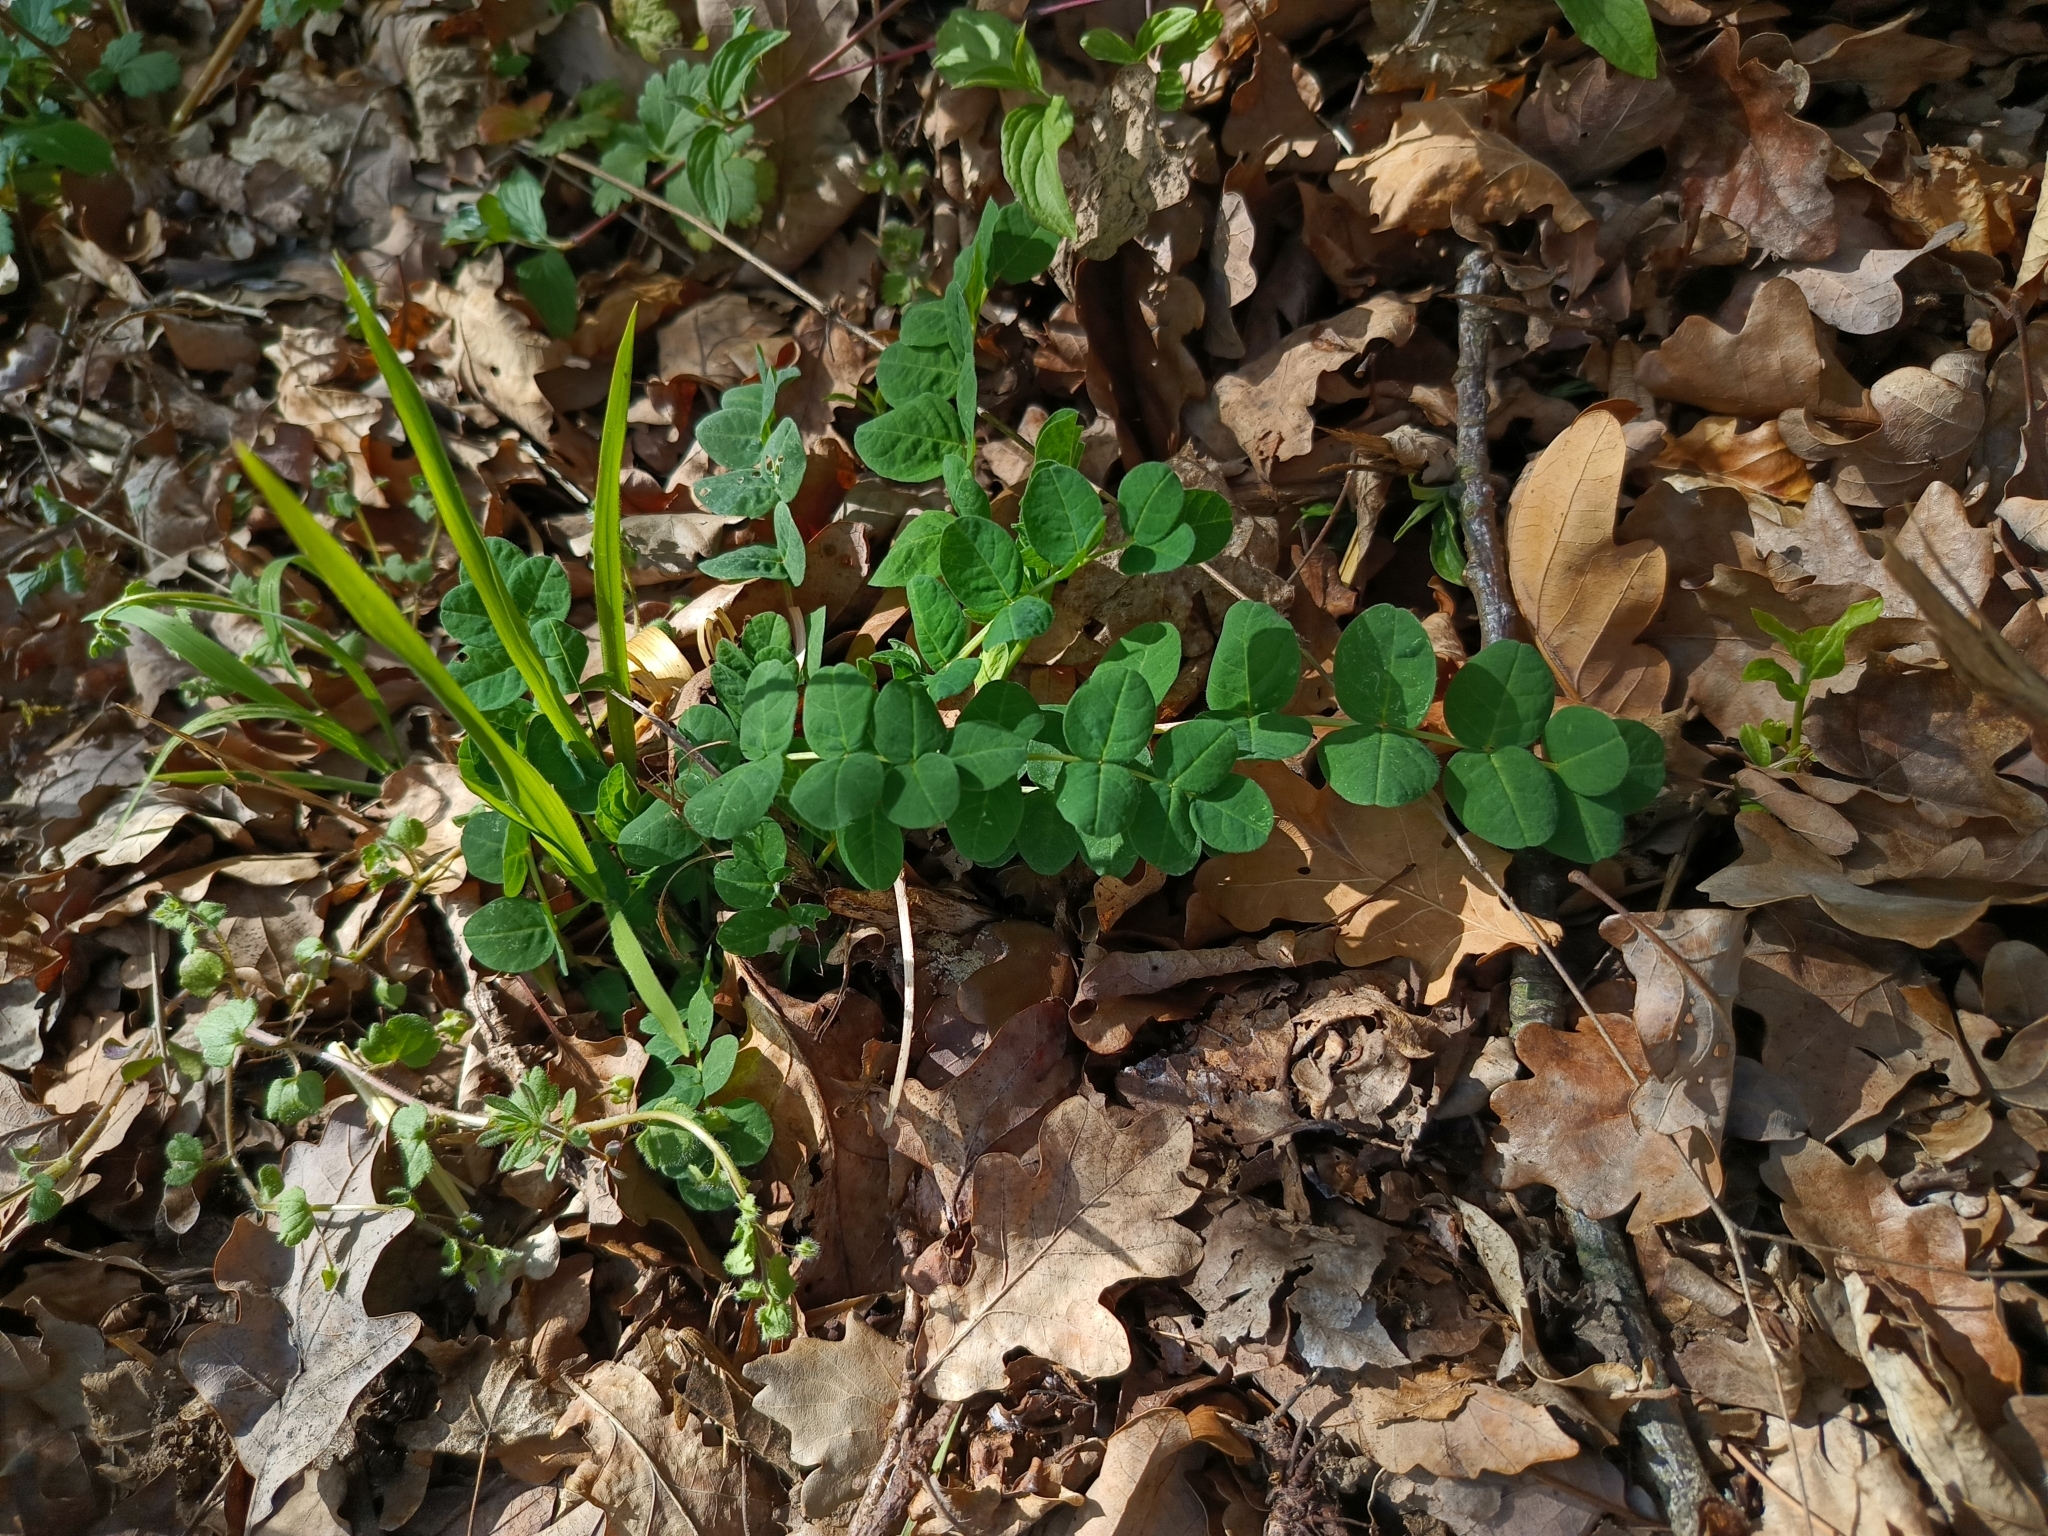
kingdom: Plantae
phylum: Tracheophyta
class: Magnoliopsida
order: Fabales
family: Fabaceae
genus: Astragalus
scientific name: Astragalus glycyphyllos
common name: Wild liquorice
